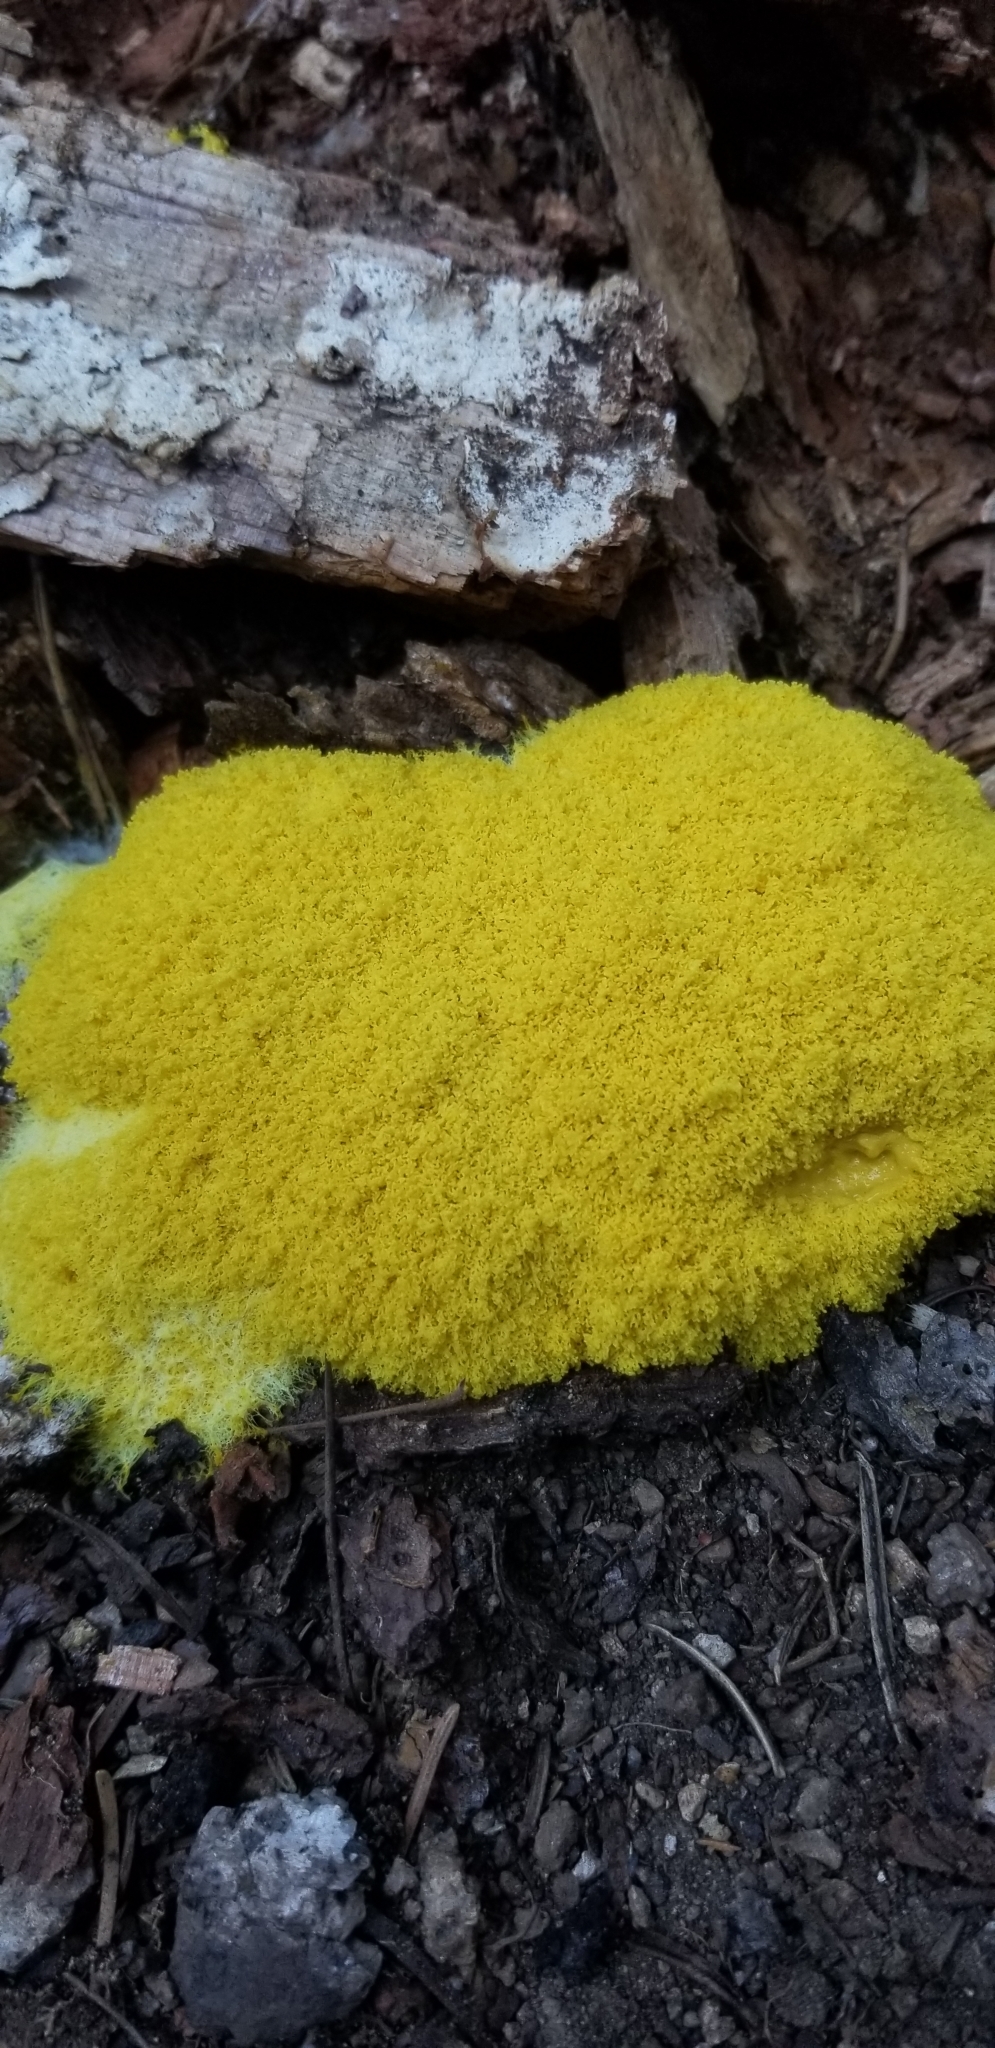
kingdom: Protozoa
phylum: Mycetozoa
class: Myxomycetes
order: Physarales
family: Physaraceae
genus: Fuligo
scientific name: Fuligo septica
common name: Dog vomit slime mold
